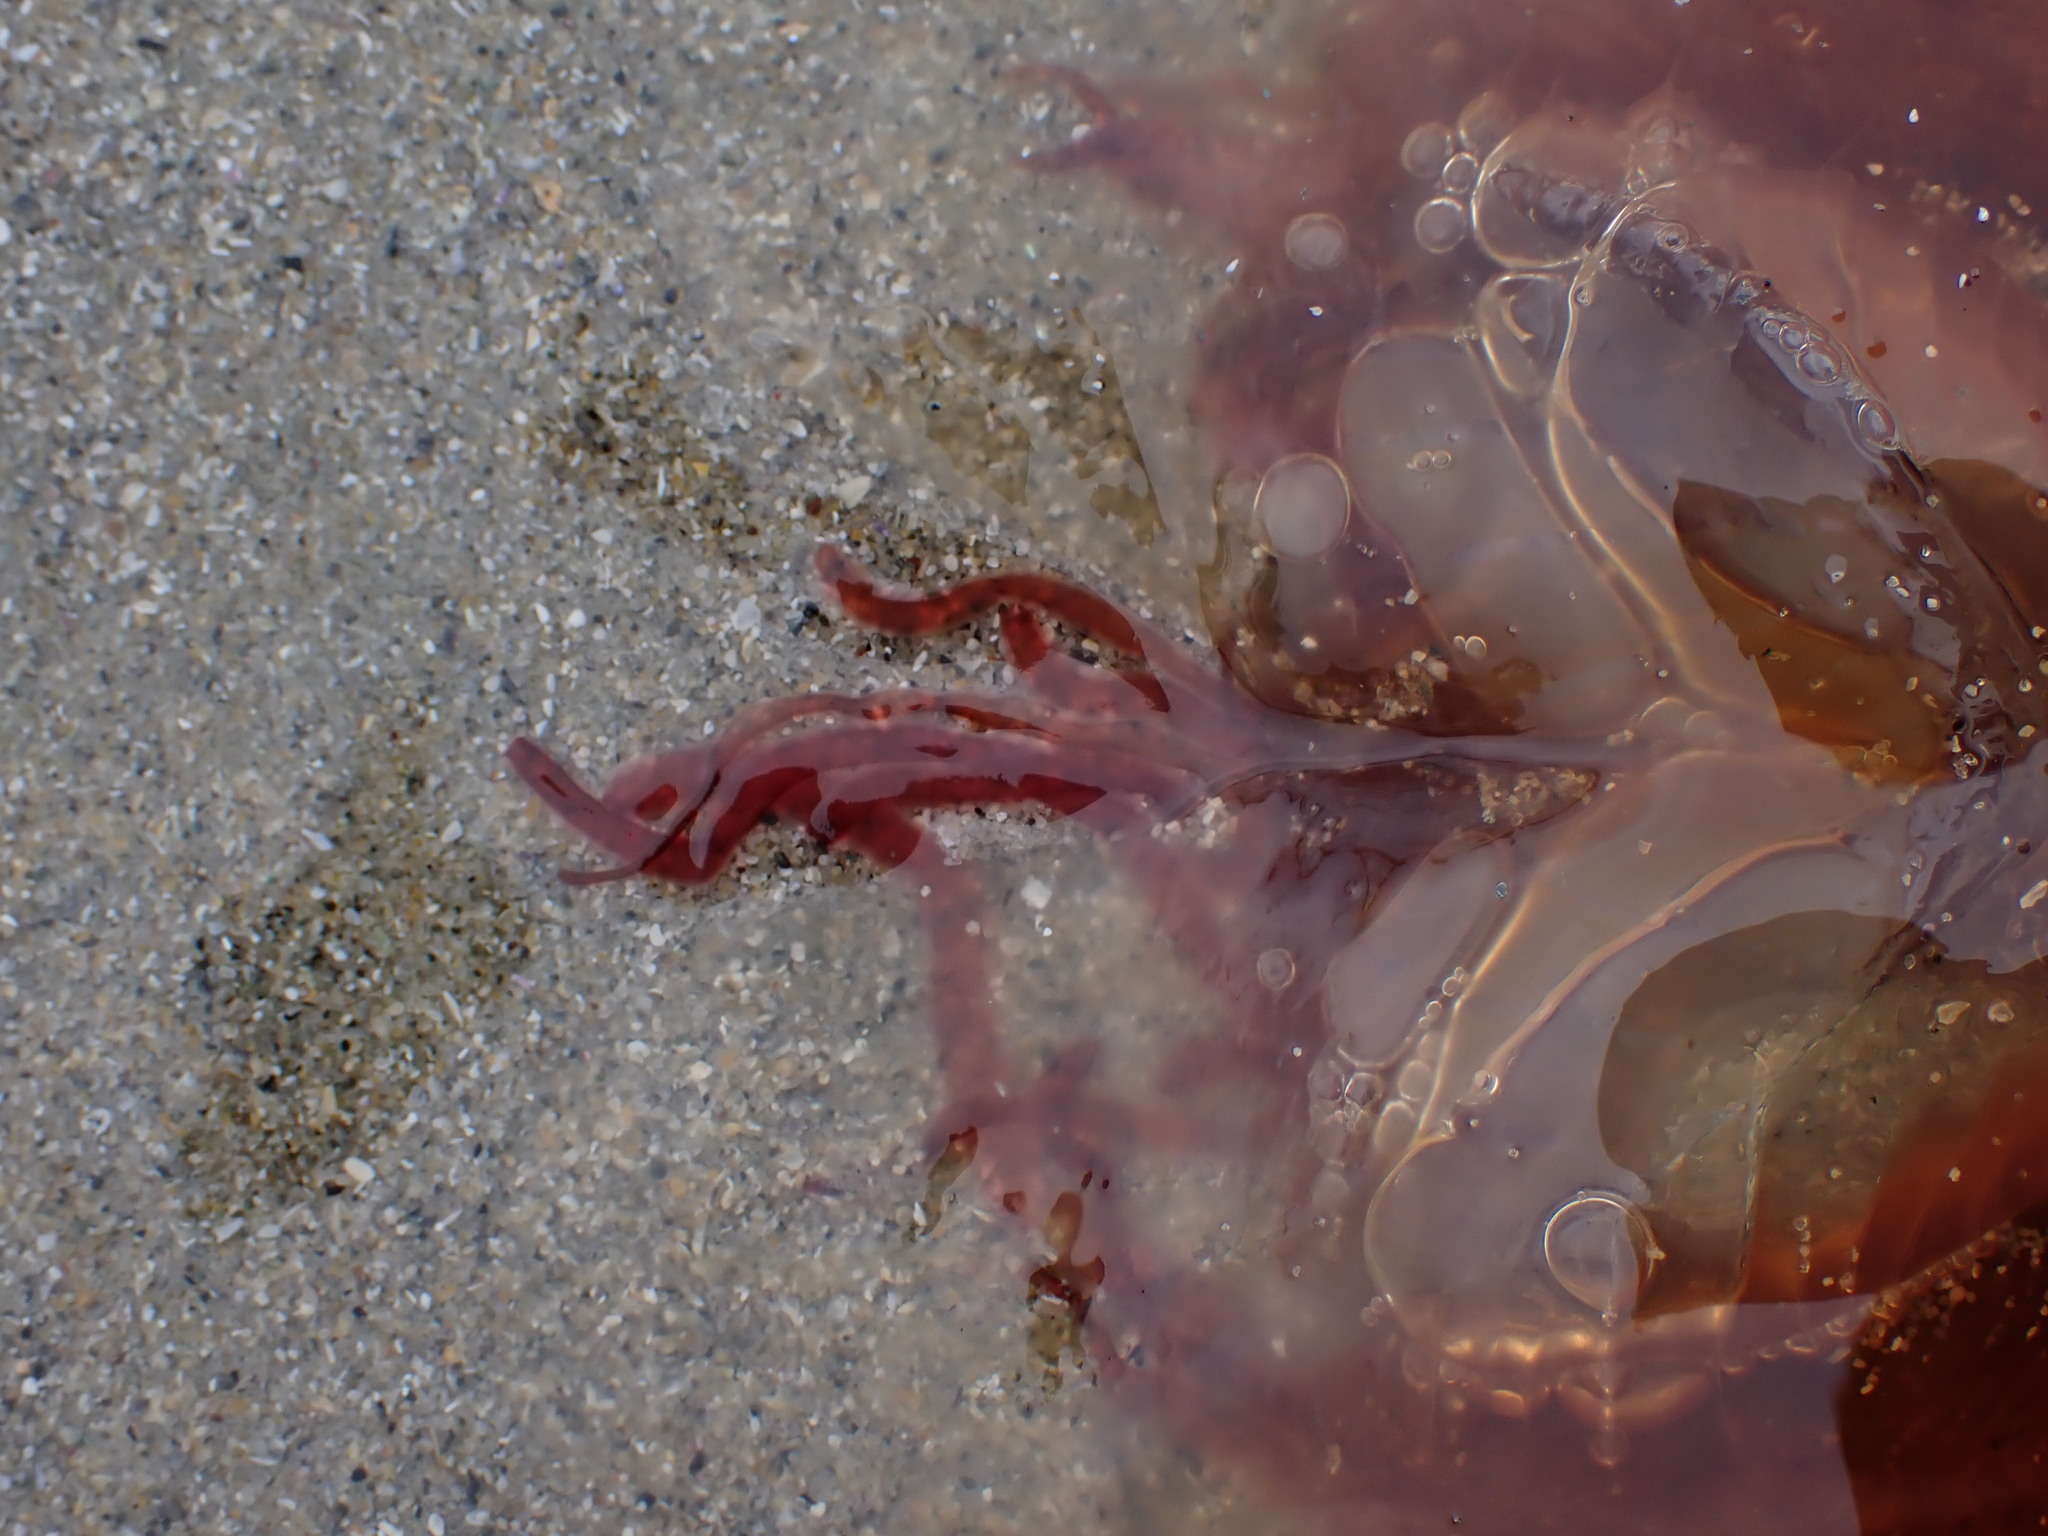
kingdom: Animalia
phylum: Cnidaria
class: Scyphozoa
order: Semaeostomeae
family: Cyaneidae
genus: Cyanea
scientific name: Cyanea ferruginea
